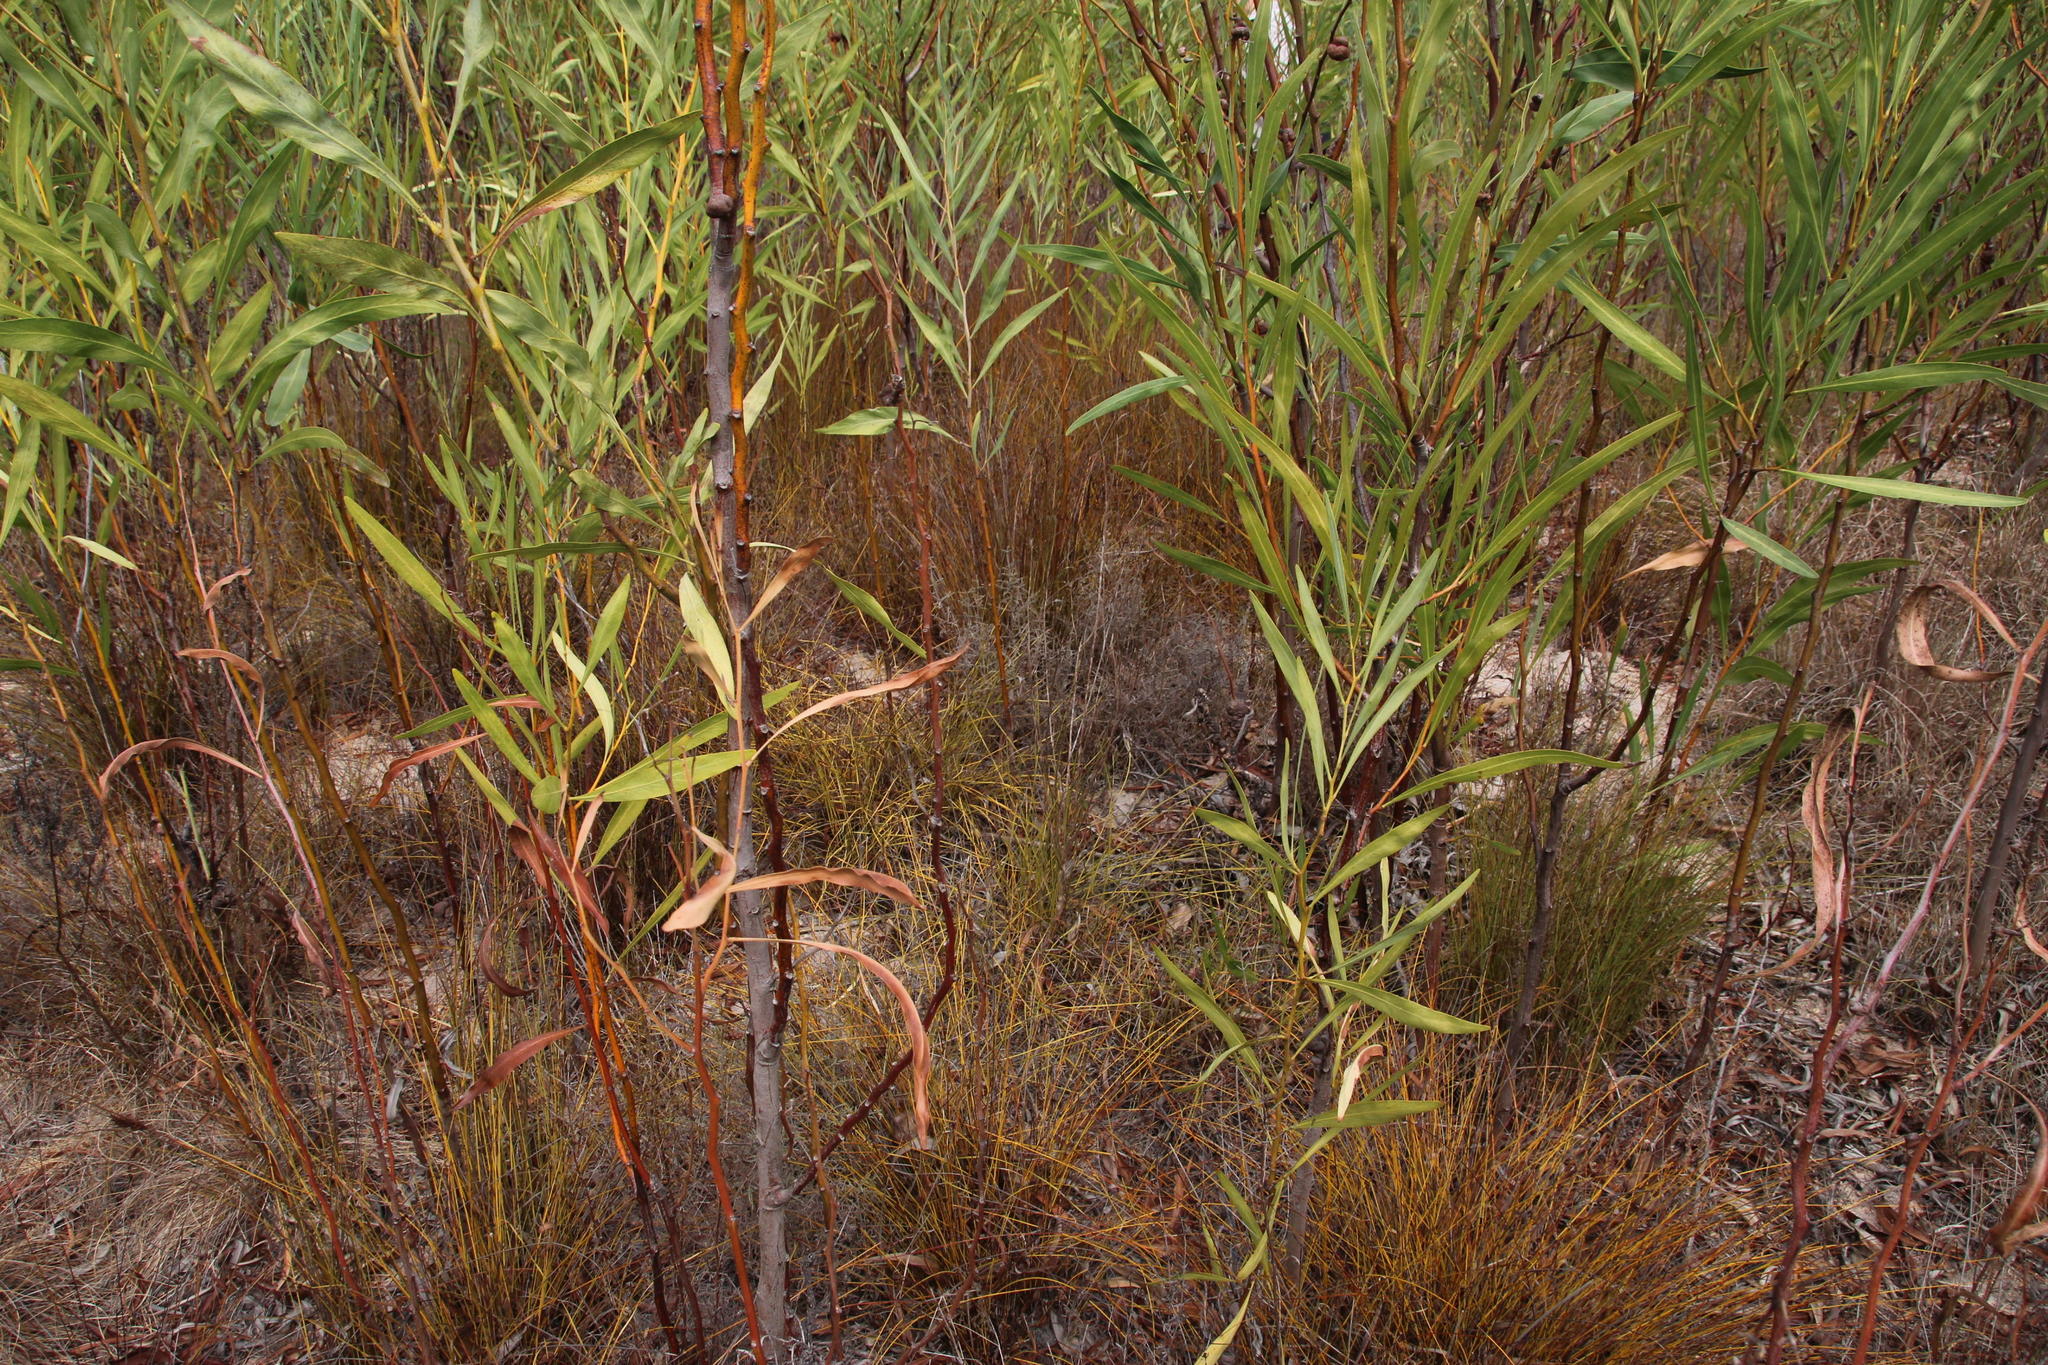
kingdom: Plantae
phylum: Tracheophyta
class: Magnoliopsida
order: Fabales
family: Fabaceae
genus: Acacia
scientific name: Acacia saligna
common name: Orange wattle
